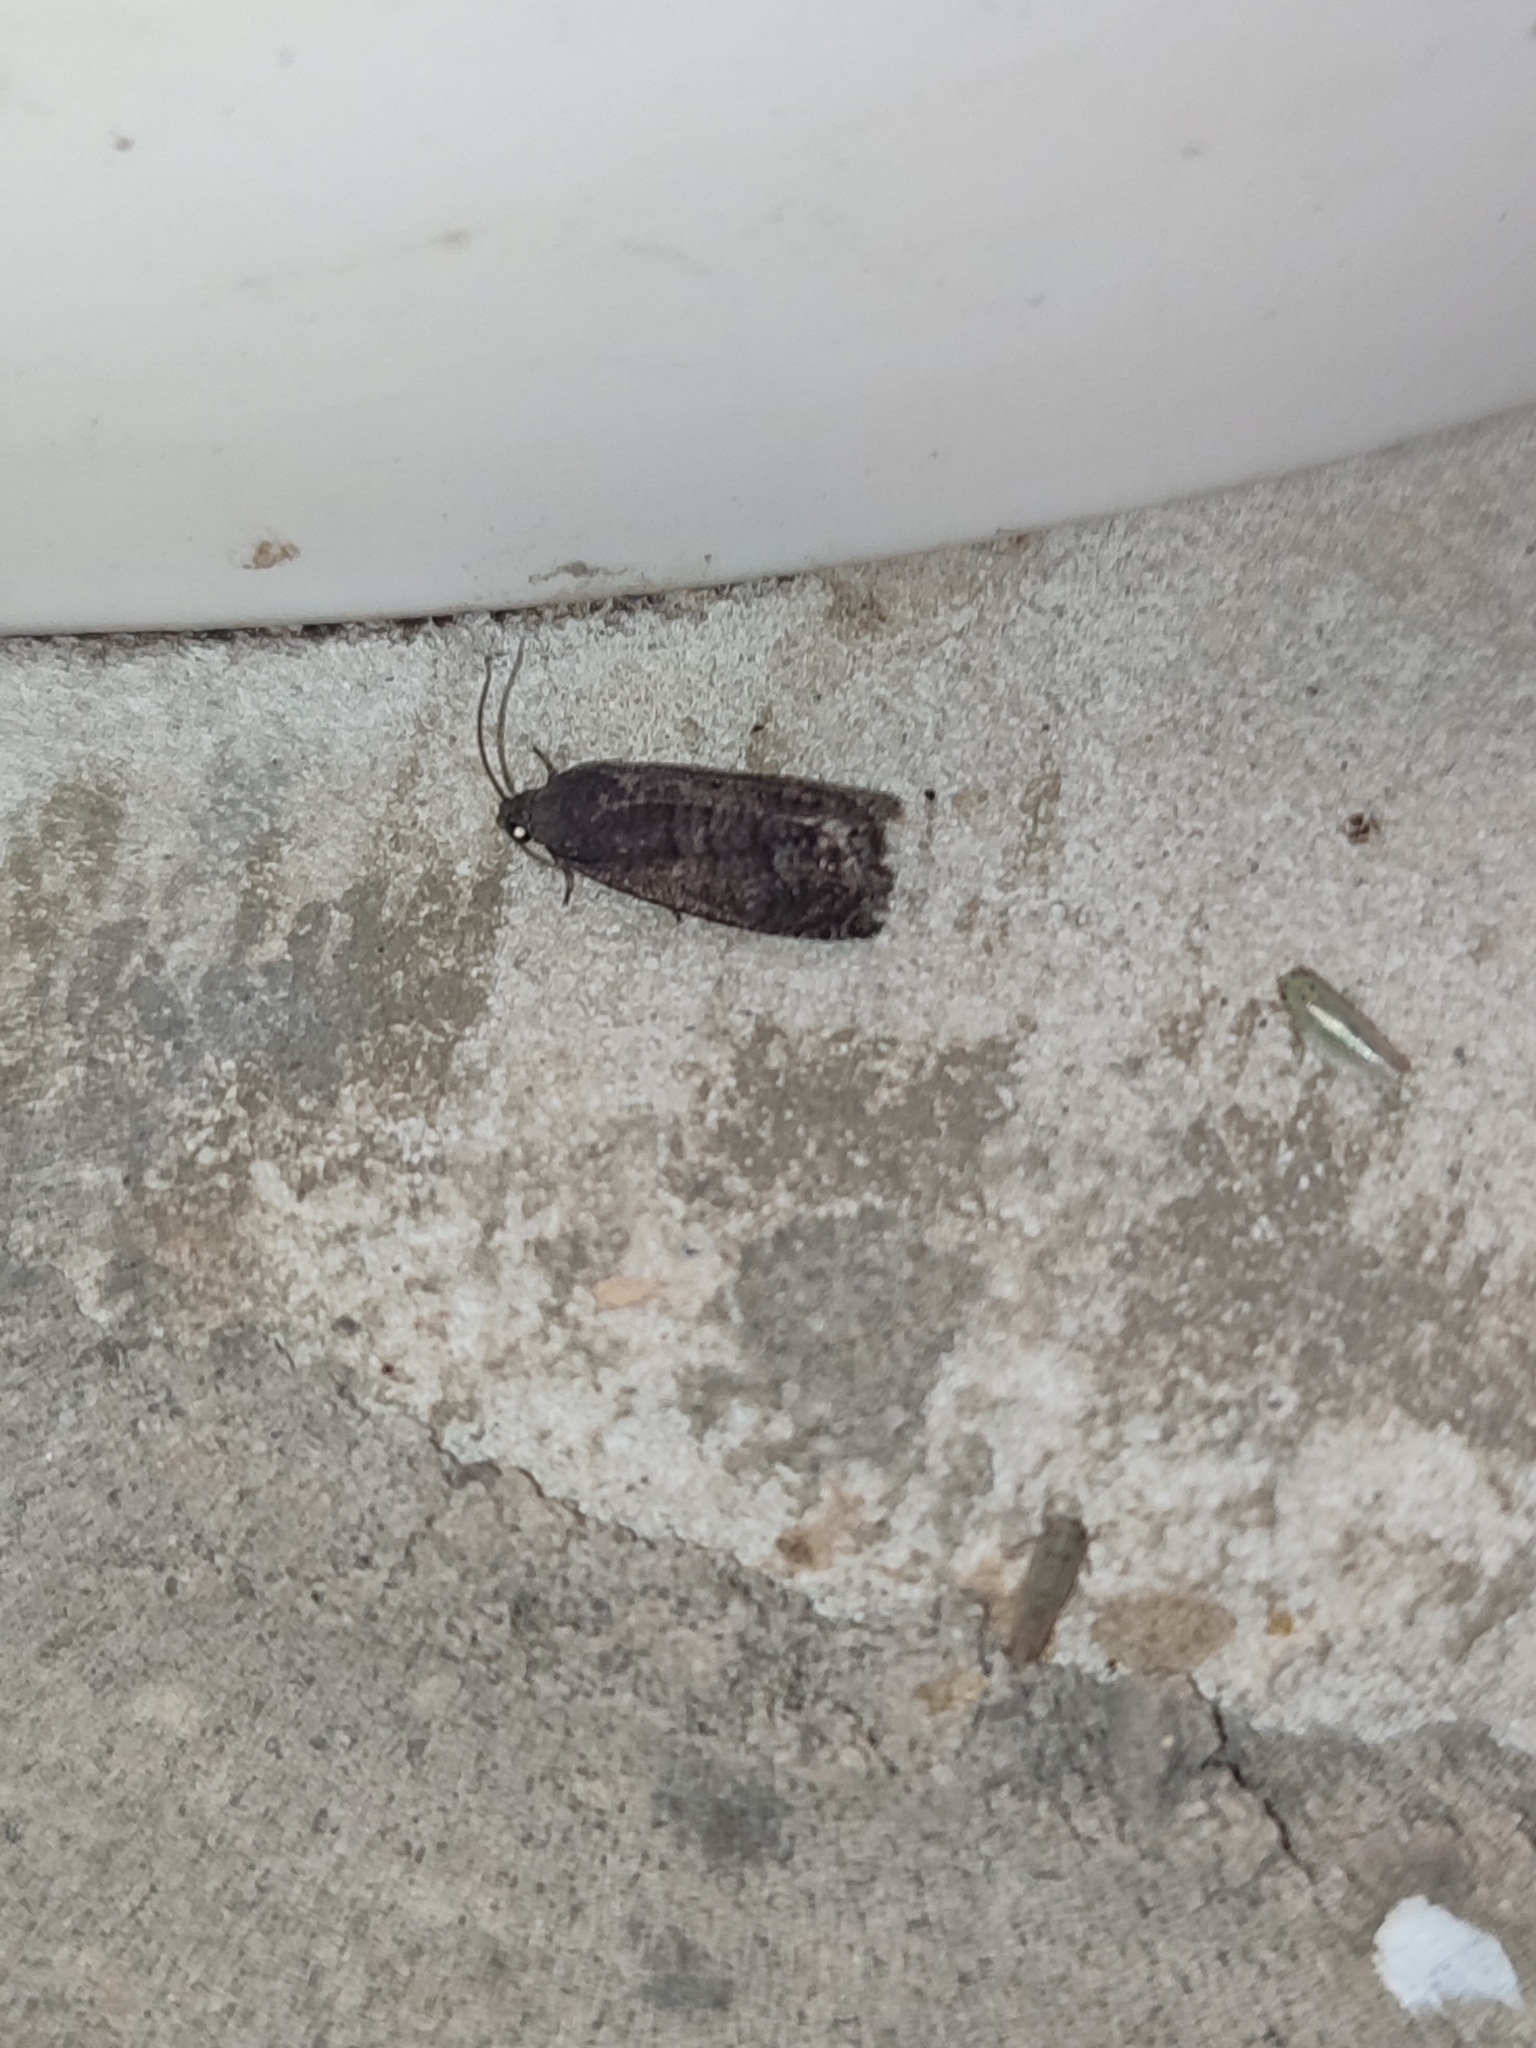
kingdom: Animalia
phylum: Arthropoda
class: Insecta
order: Lepidoptera
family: Tortricidae
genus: Cydia
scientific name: Cydia pyrivora
